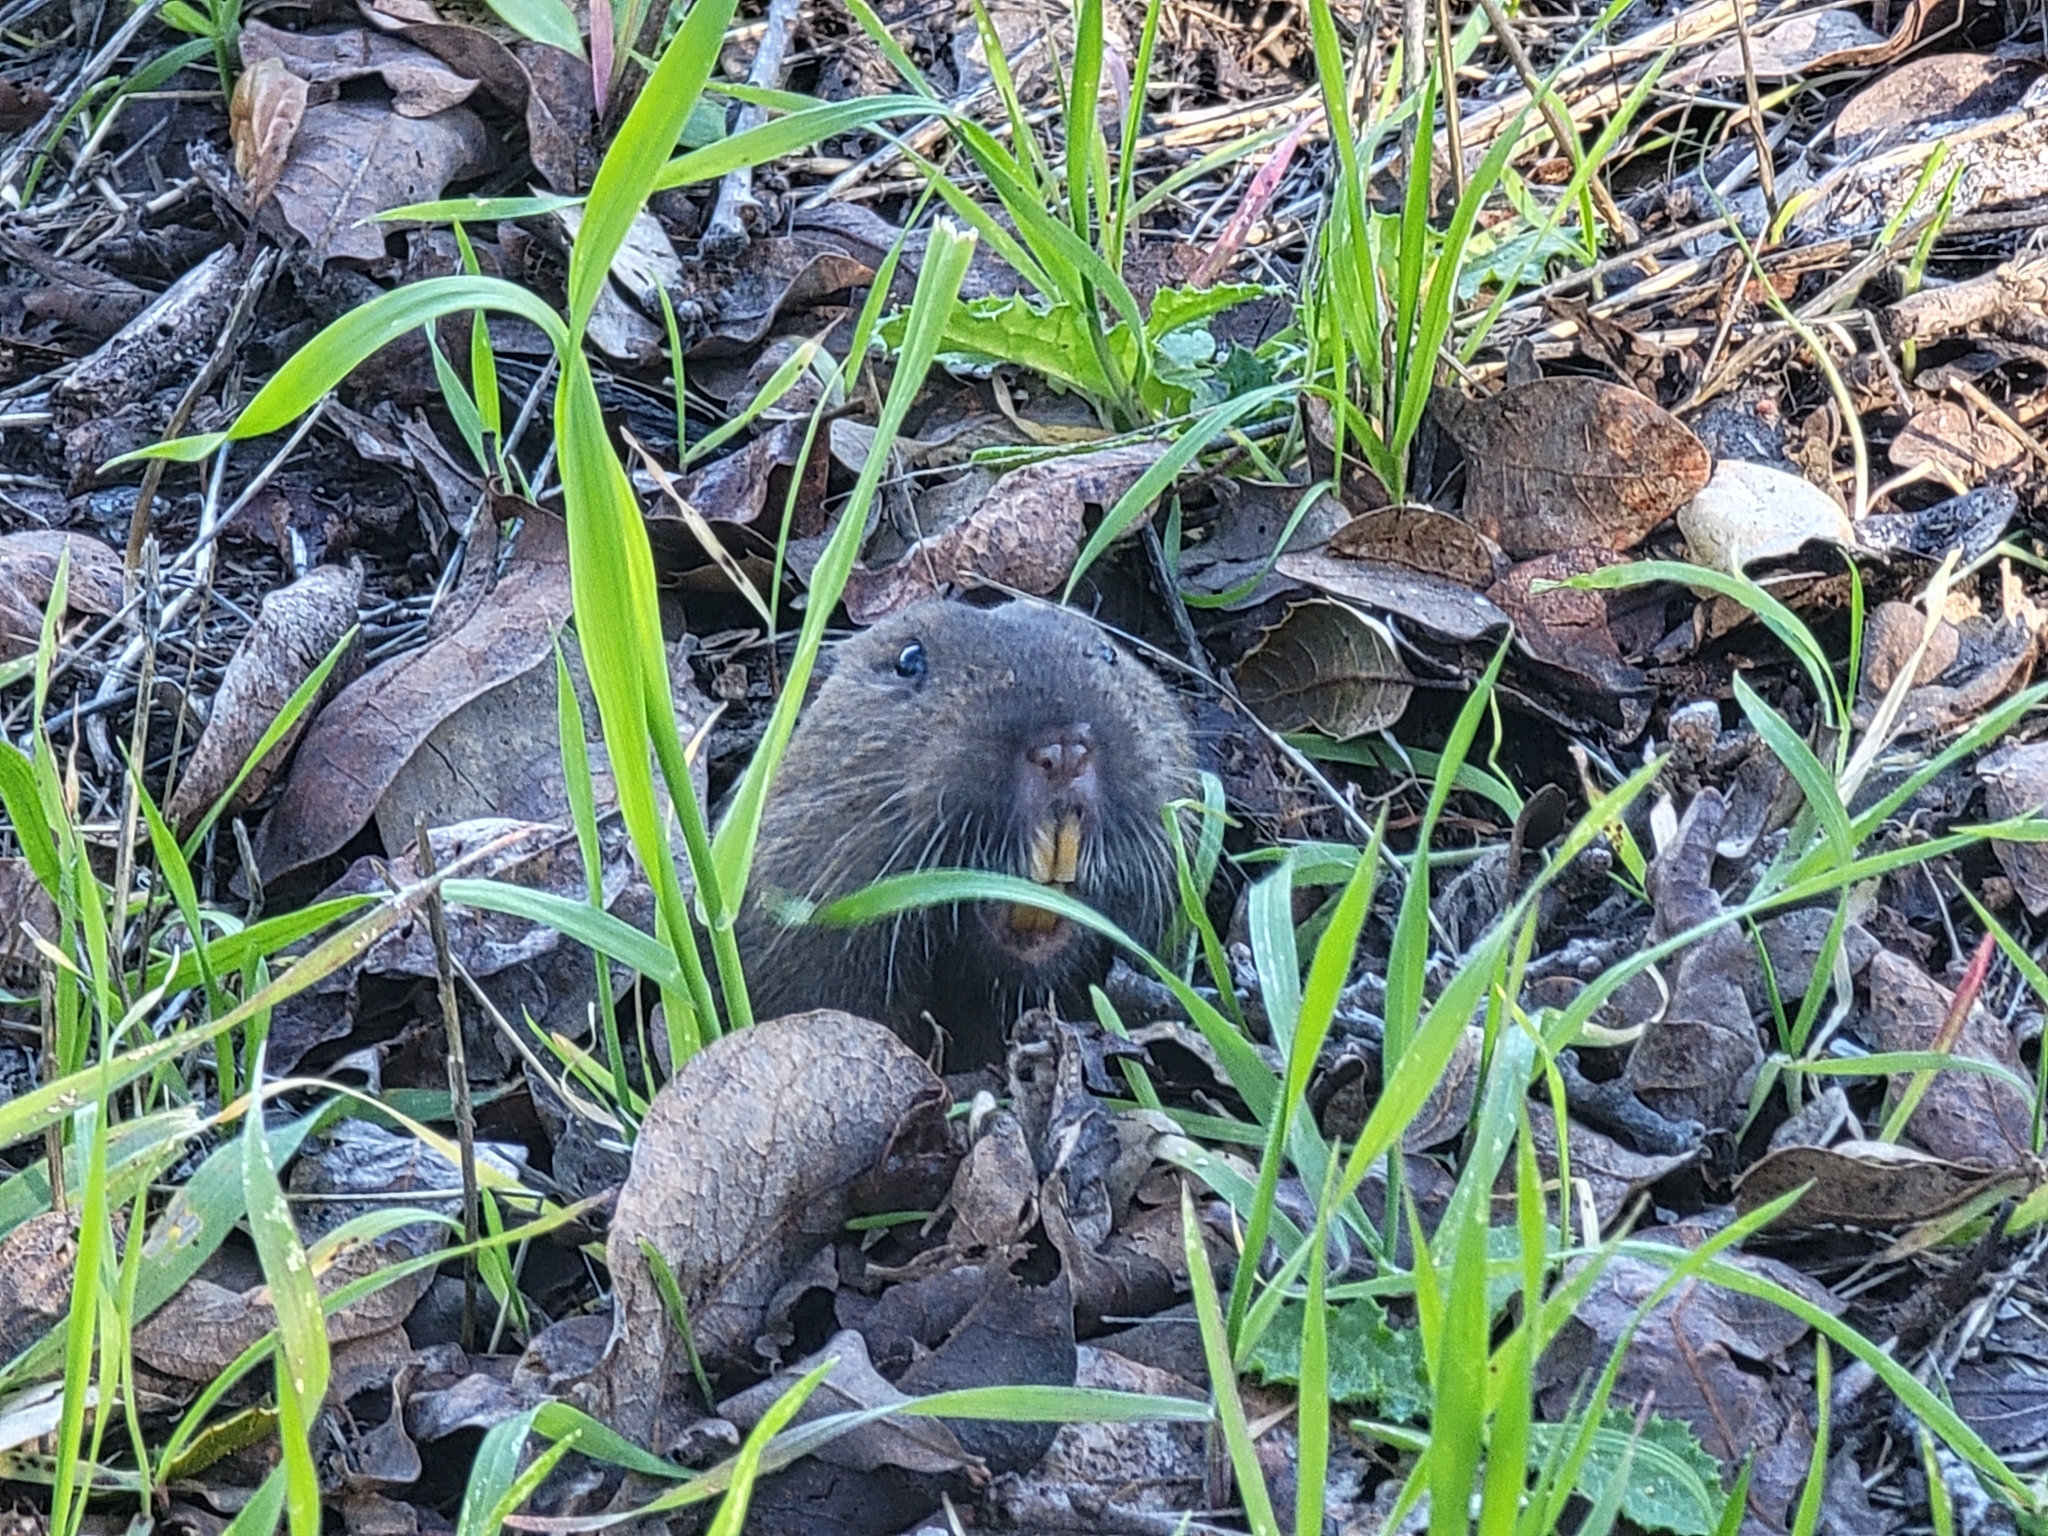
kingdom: Animalia
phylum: Chordata
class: Mammalia
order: Rodentia
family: Geomyidae
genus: Thomomys
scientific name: Thomomys bottae
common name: Botta's pocket gopher
